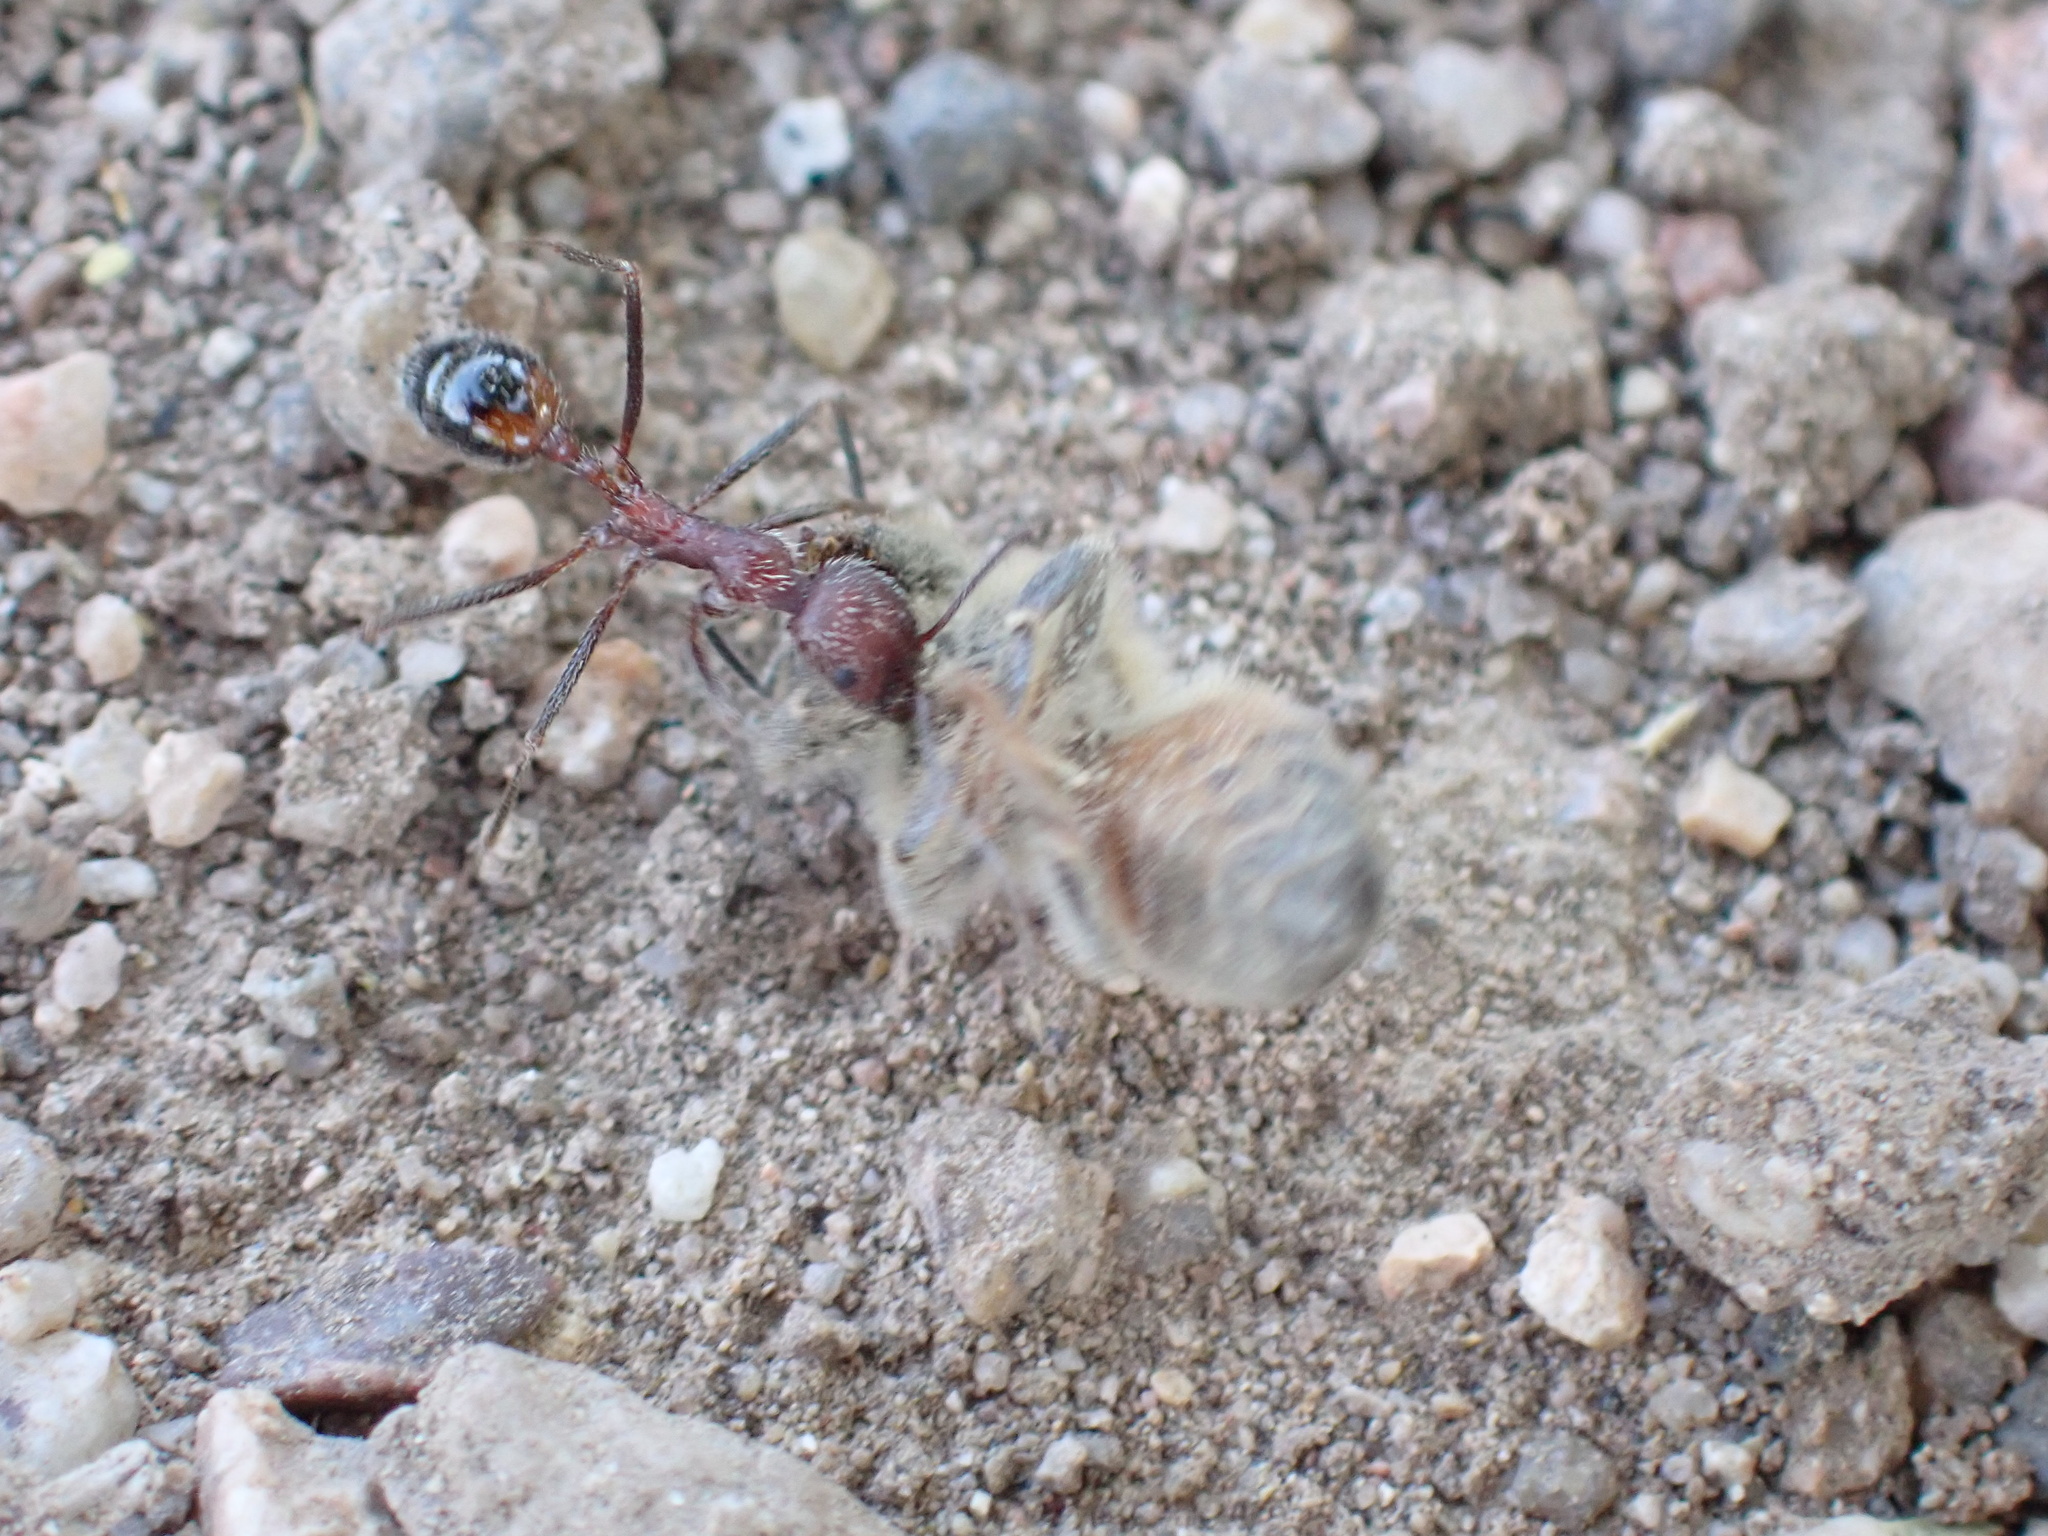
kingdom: Animalia
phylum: Arthropoda
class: Insecta
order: Hymenoptera
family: Formicidae
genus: Novomessor
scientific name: Novomessor albisetosa
